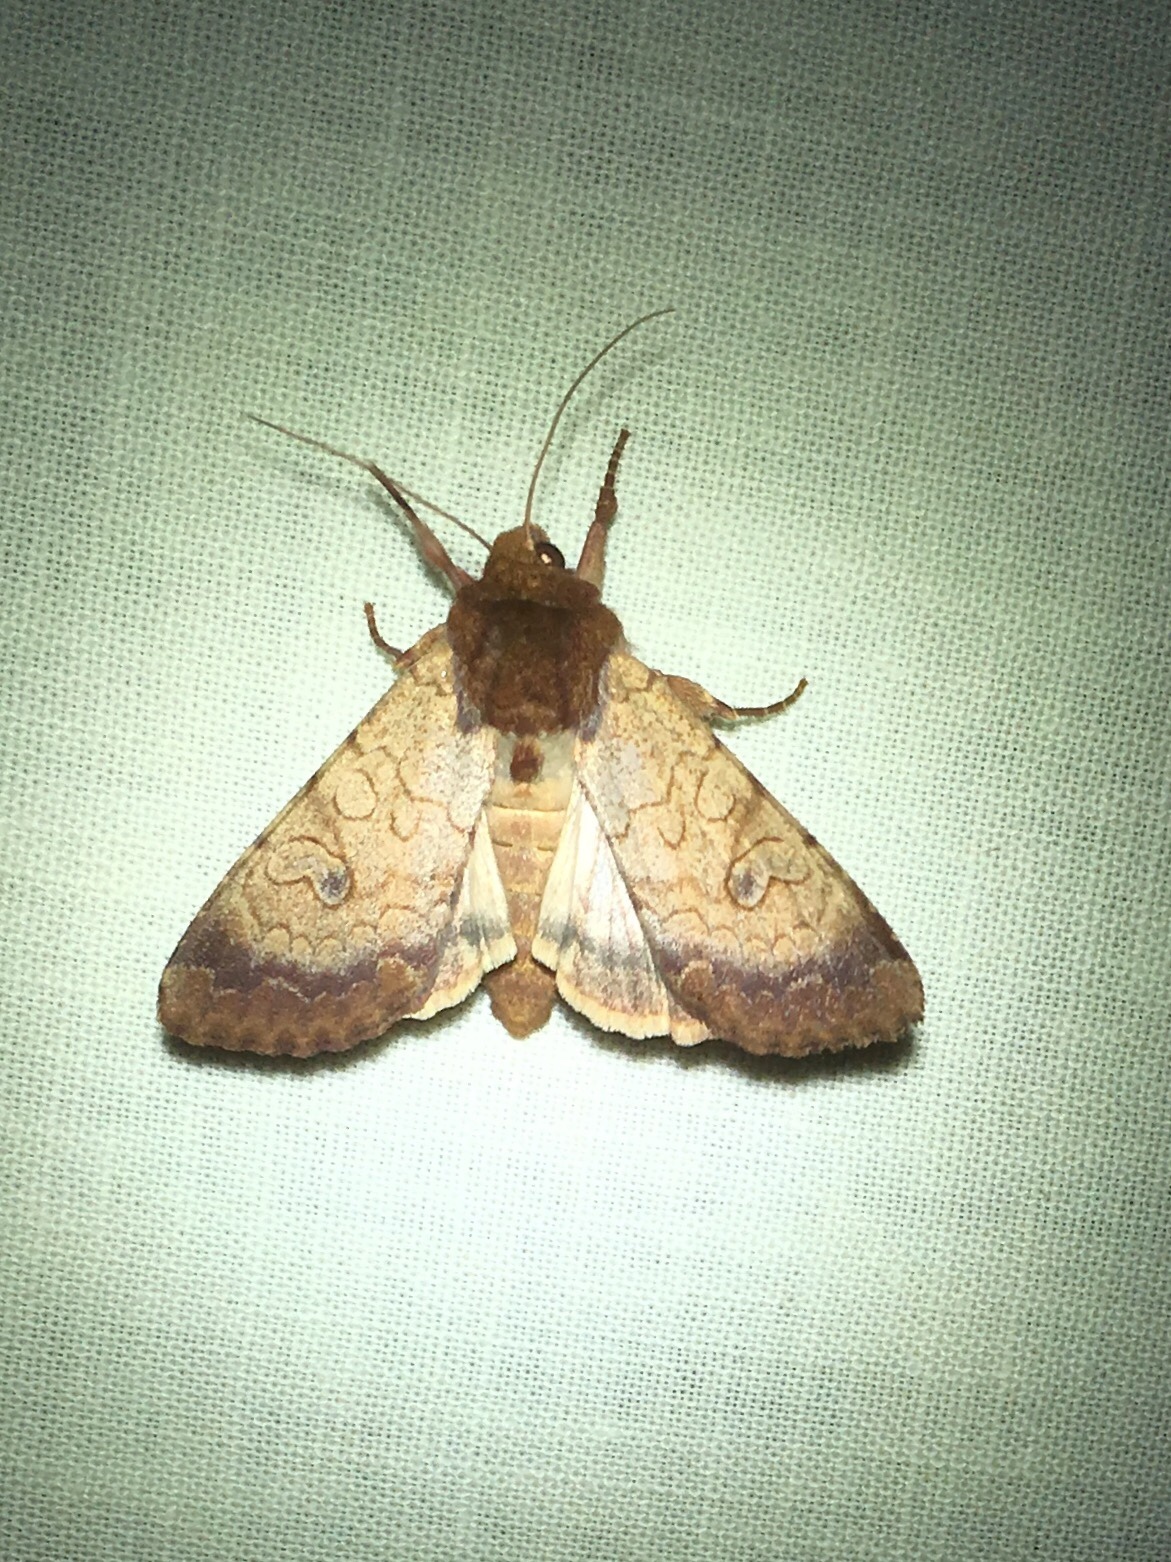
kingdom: Animalia
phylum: Arthropoda
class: Insecta
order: Lepidoptera
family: Noctuidae
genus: Sideridis
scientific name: Sideridis rosea
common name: Rosewing moth
